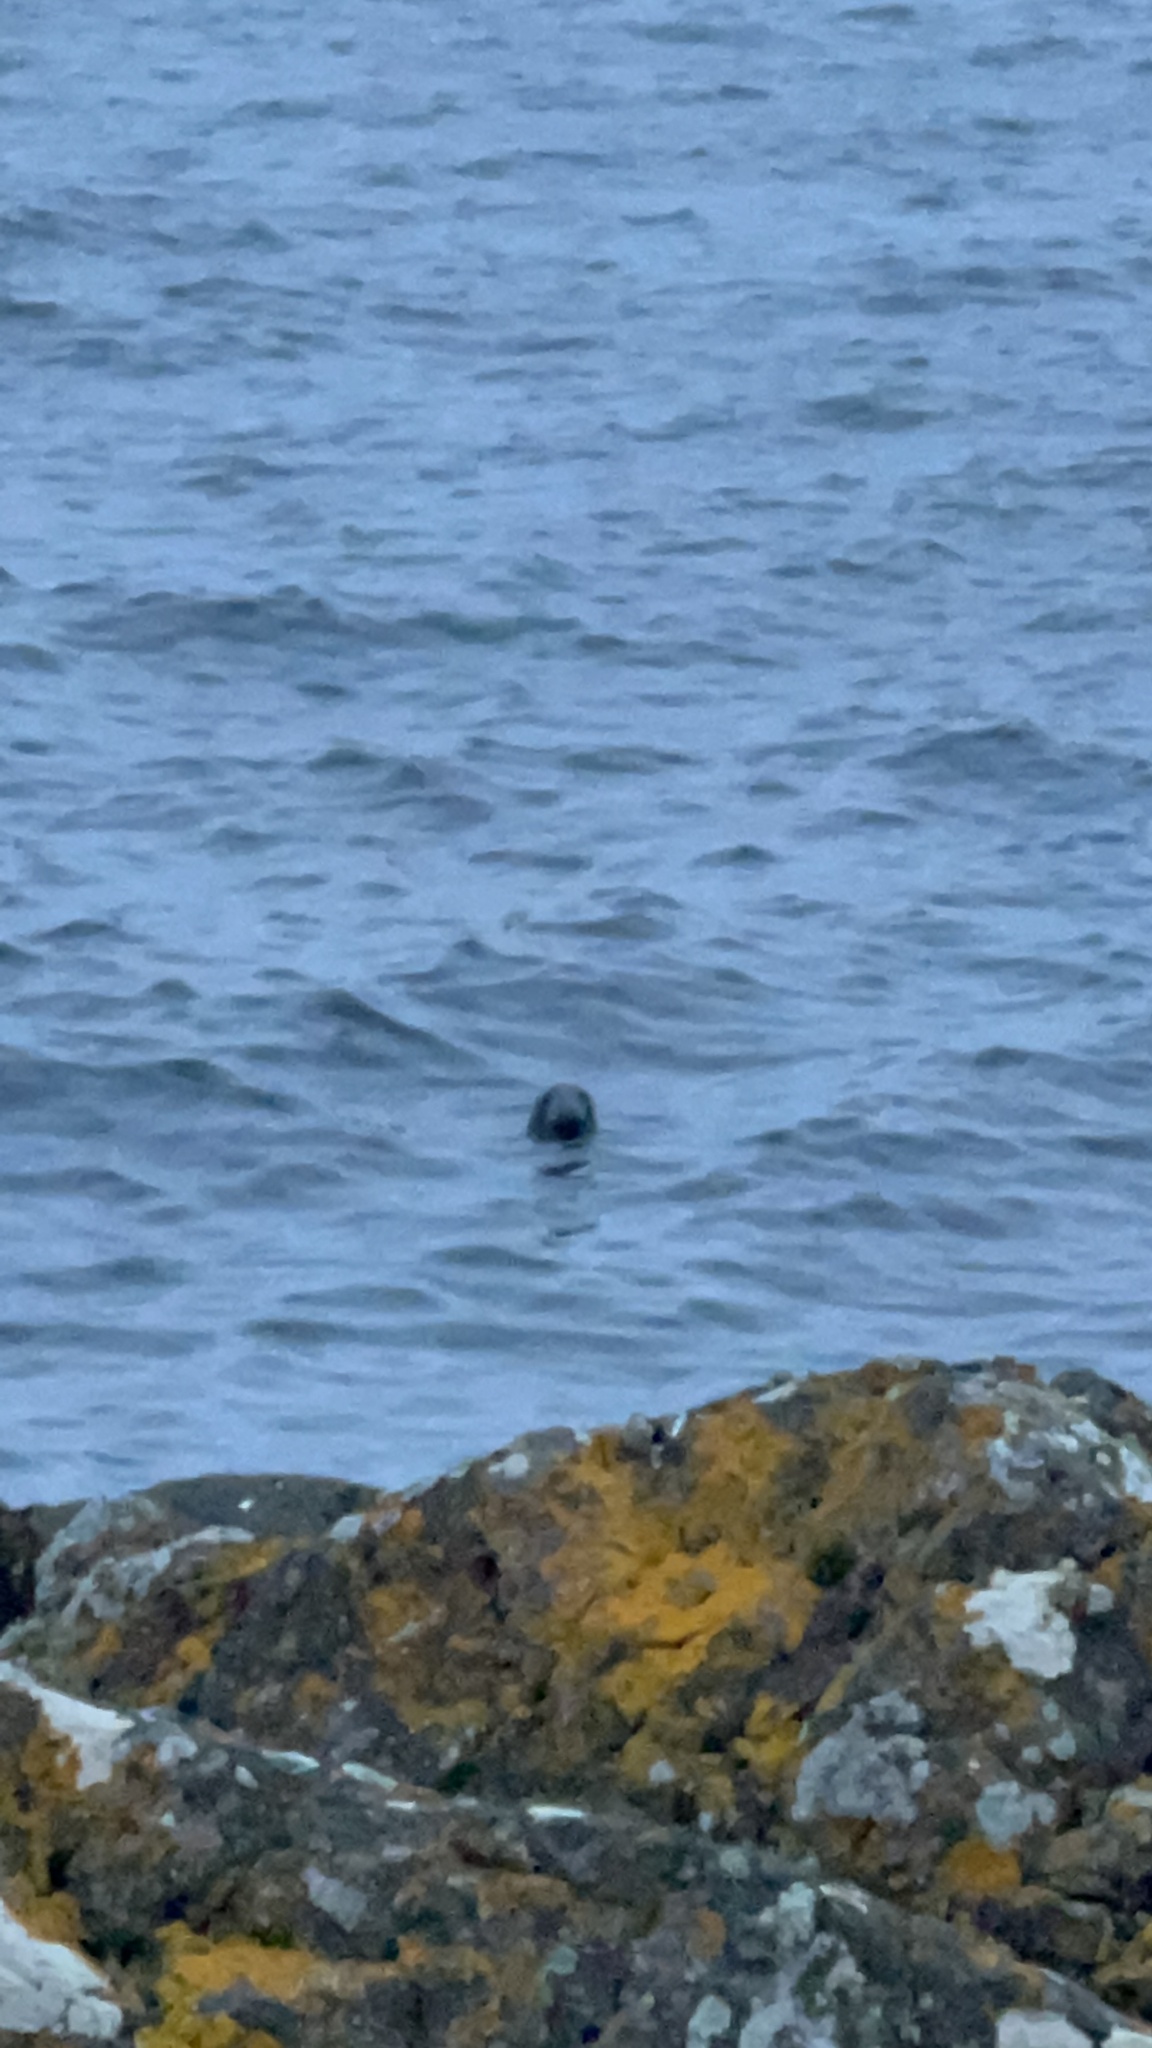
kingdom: Animalia
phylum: Chordata
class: Mammalia
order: Carnivora
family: Phocidae
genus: Halichoerus
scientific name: Halichoerus grypus
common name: Grey seal
